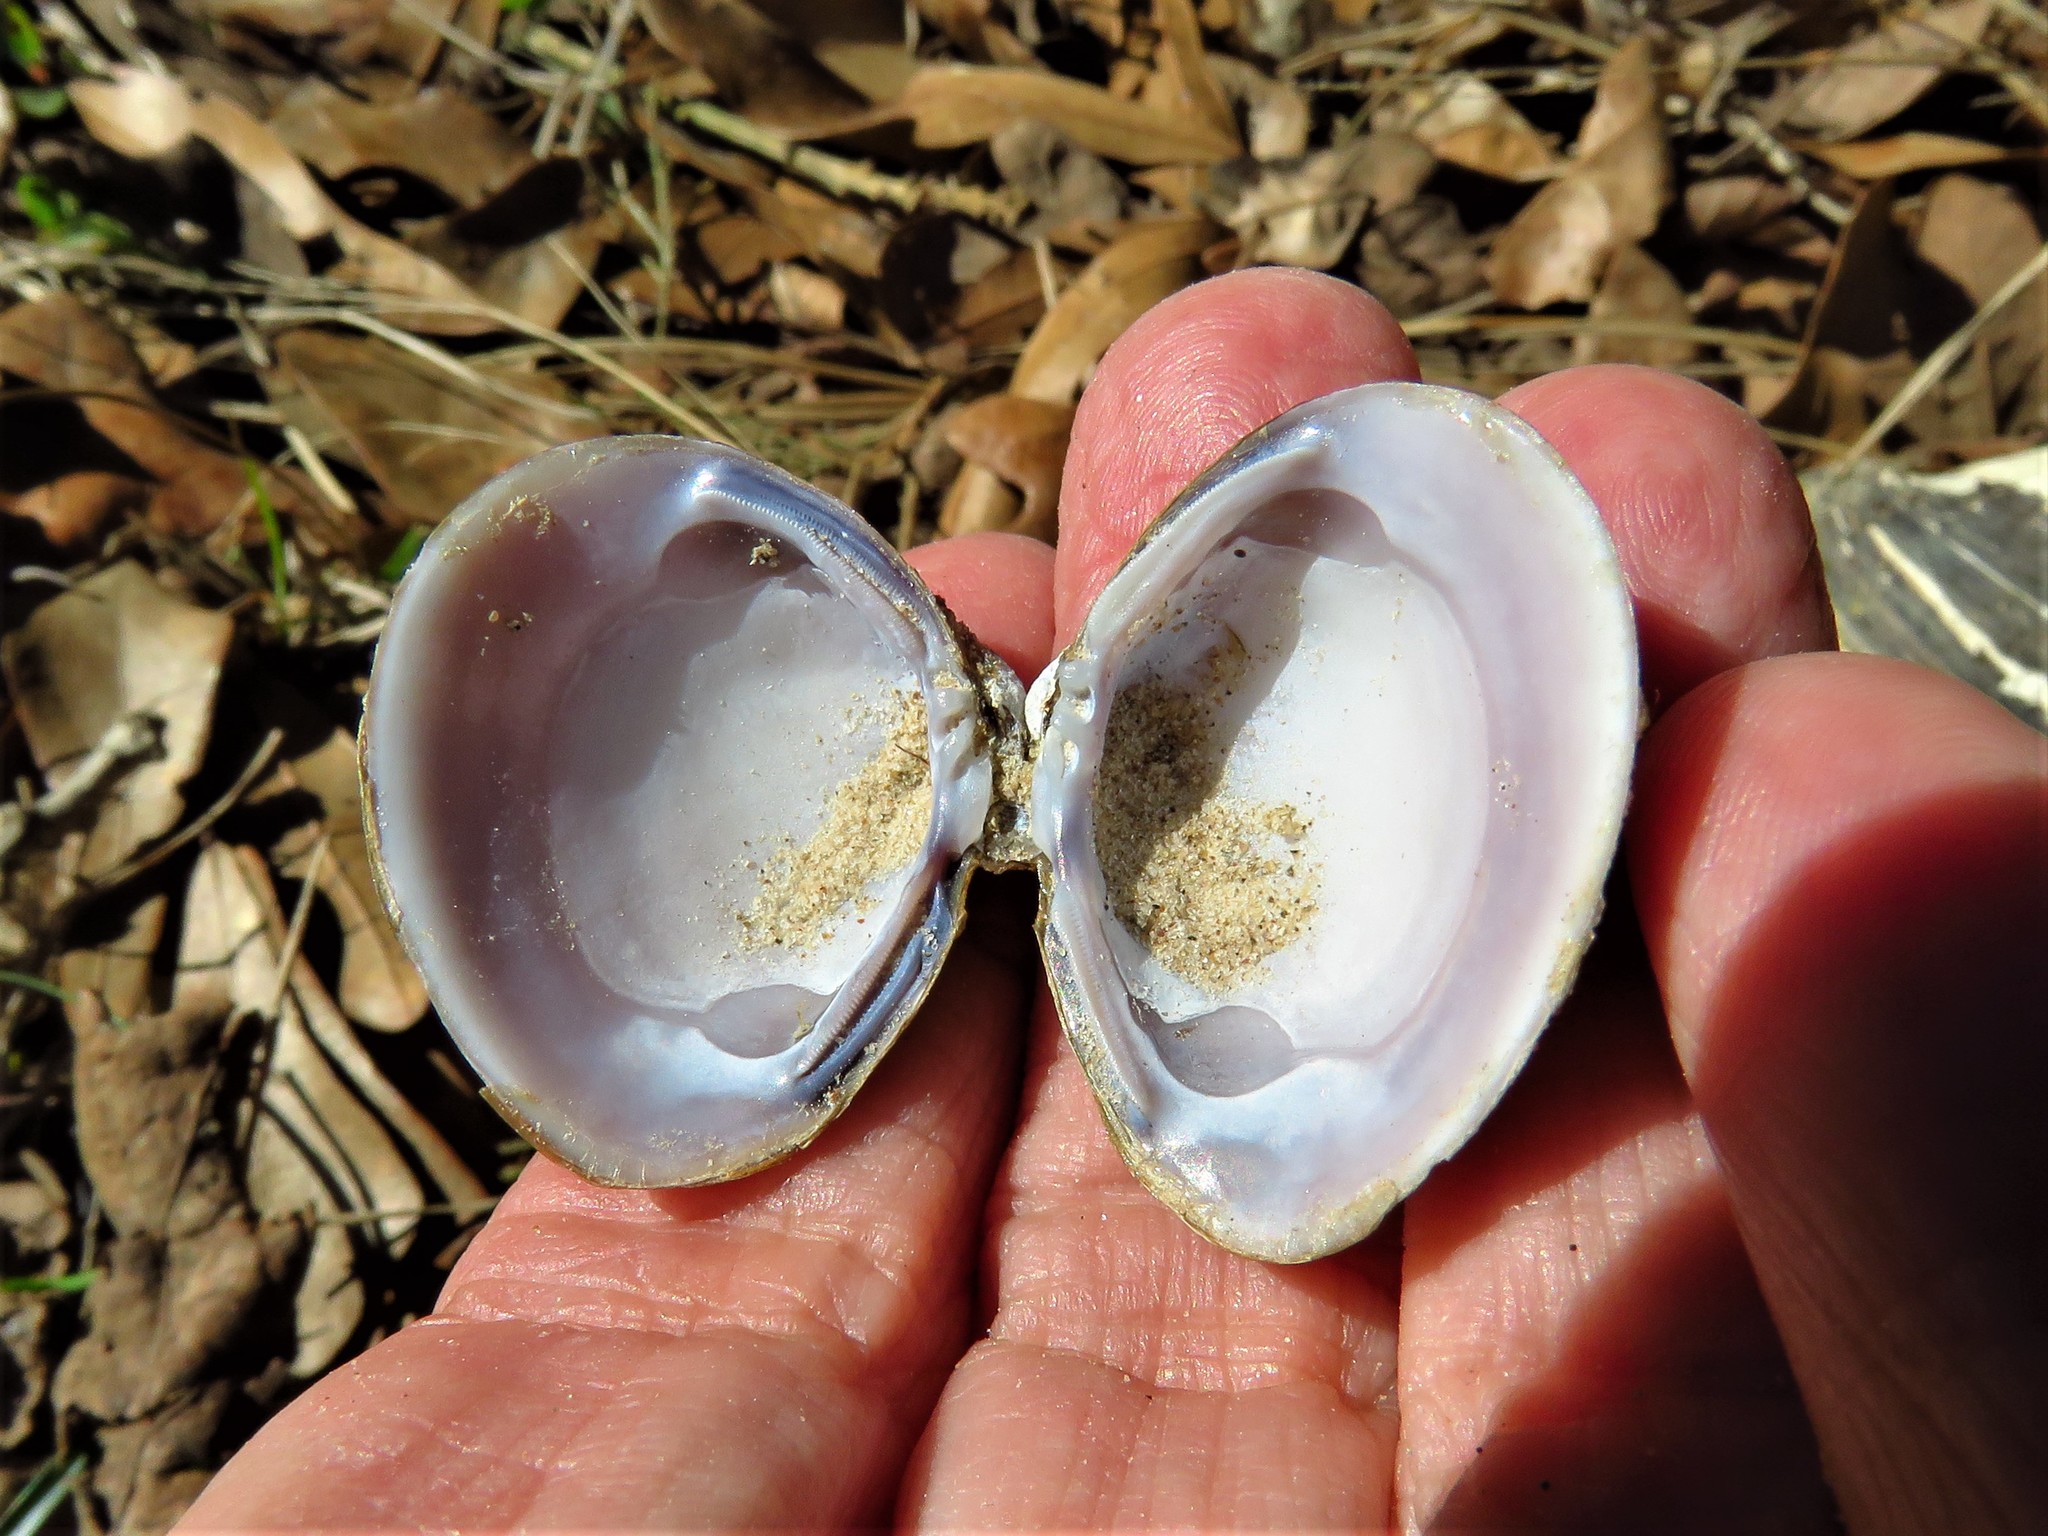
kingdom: Animalia
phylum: Mollusca
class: Bivalvia
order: Venerida
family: Cyrenidae
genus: Corbicula
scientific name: Corbicula fluminea
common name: Asian clam
